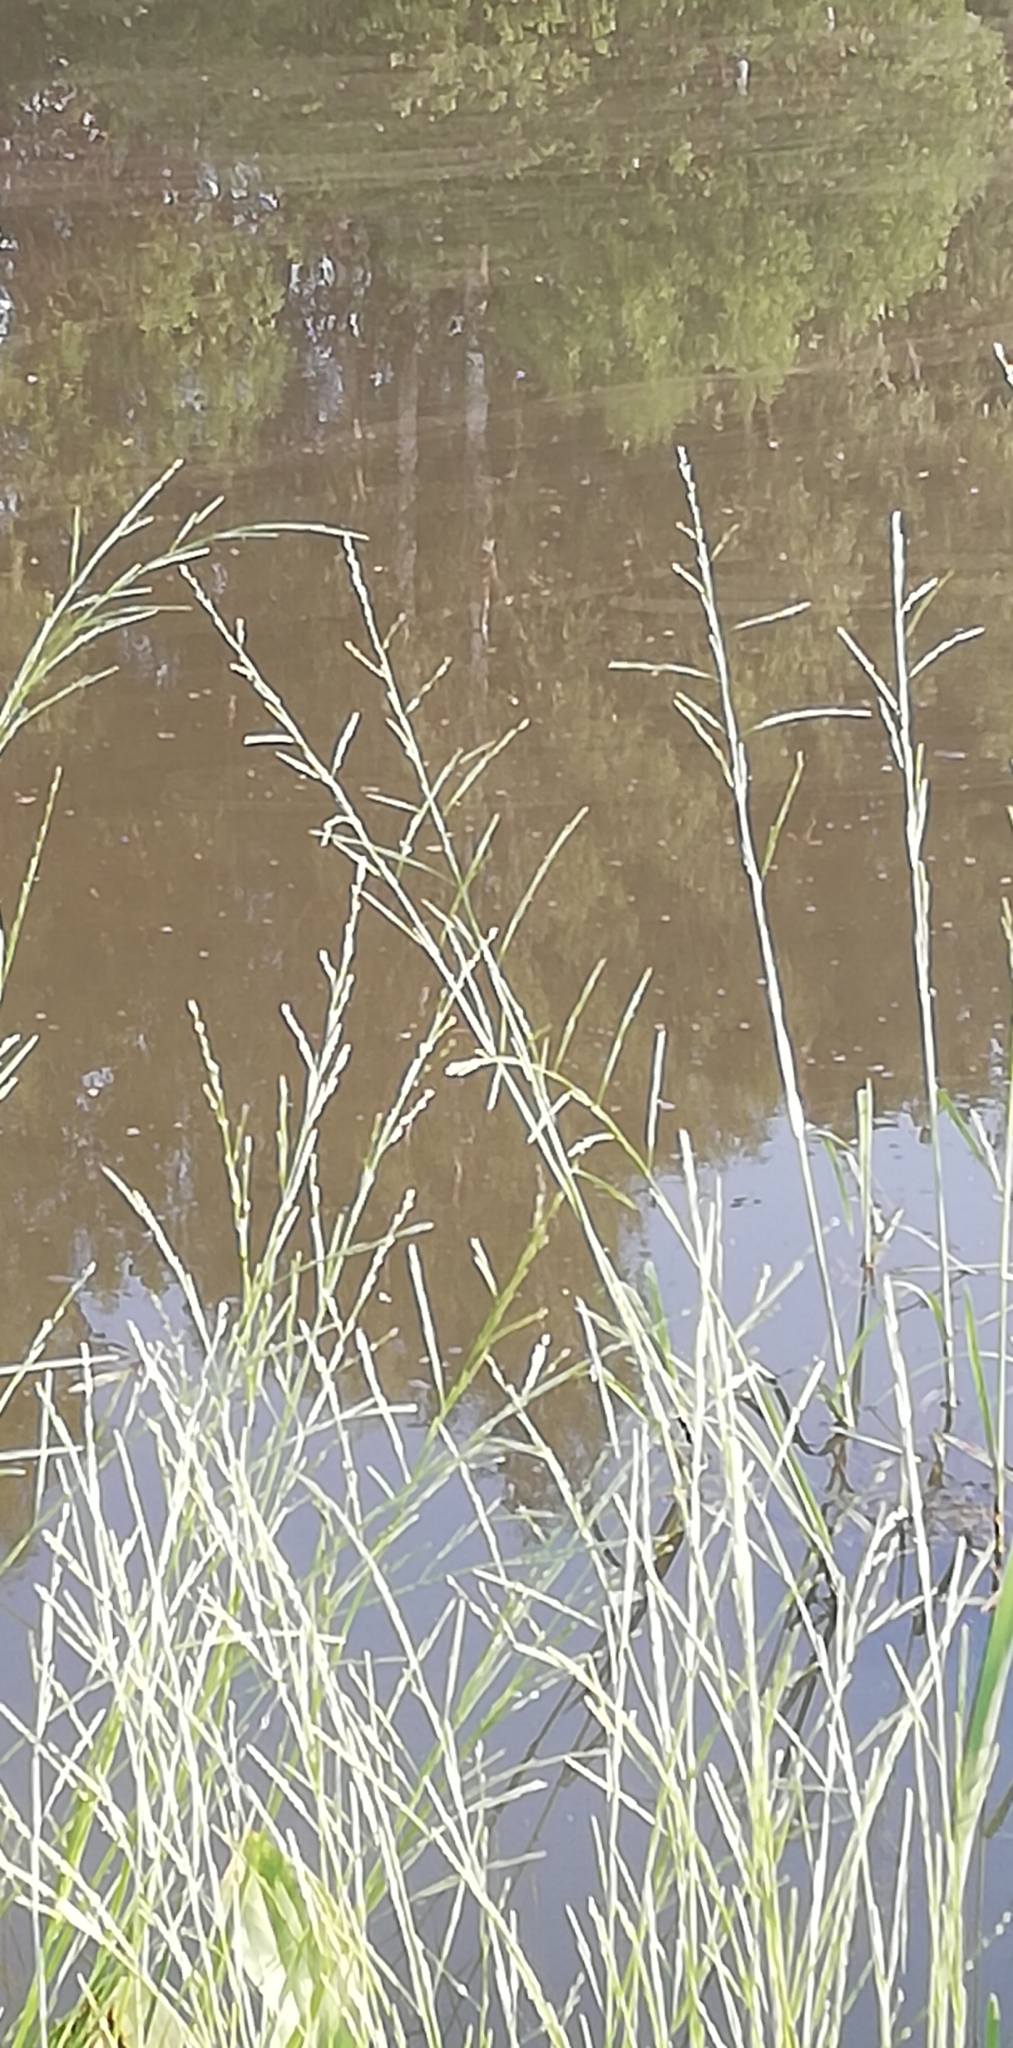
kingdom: Plantae
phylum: Tracheophyta
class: Liliopsida
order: Poales
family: Poaceae
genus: Glyceria
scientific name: Glyceria fluitans
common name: Floating sweet-grass
